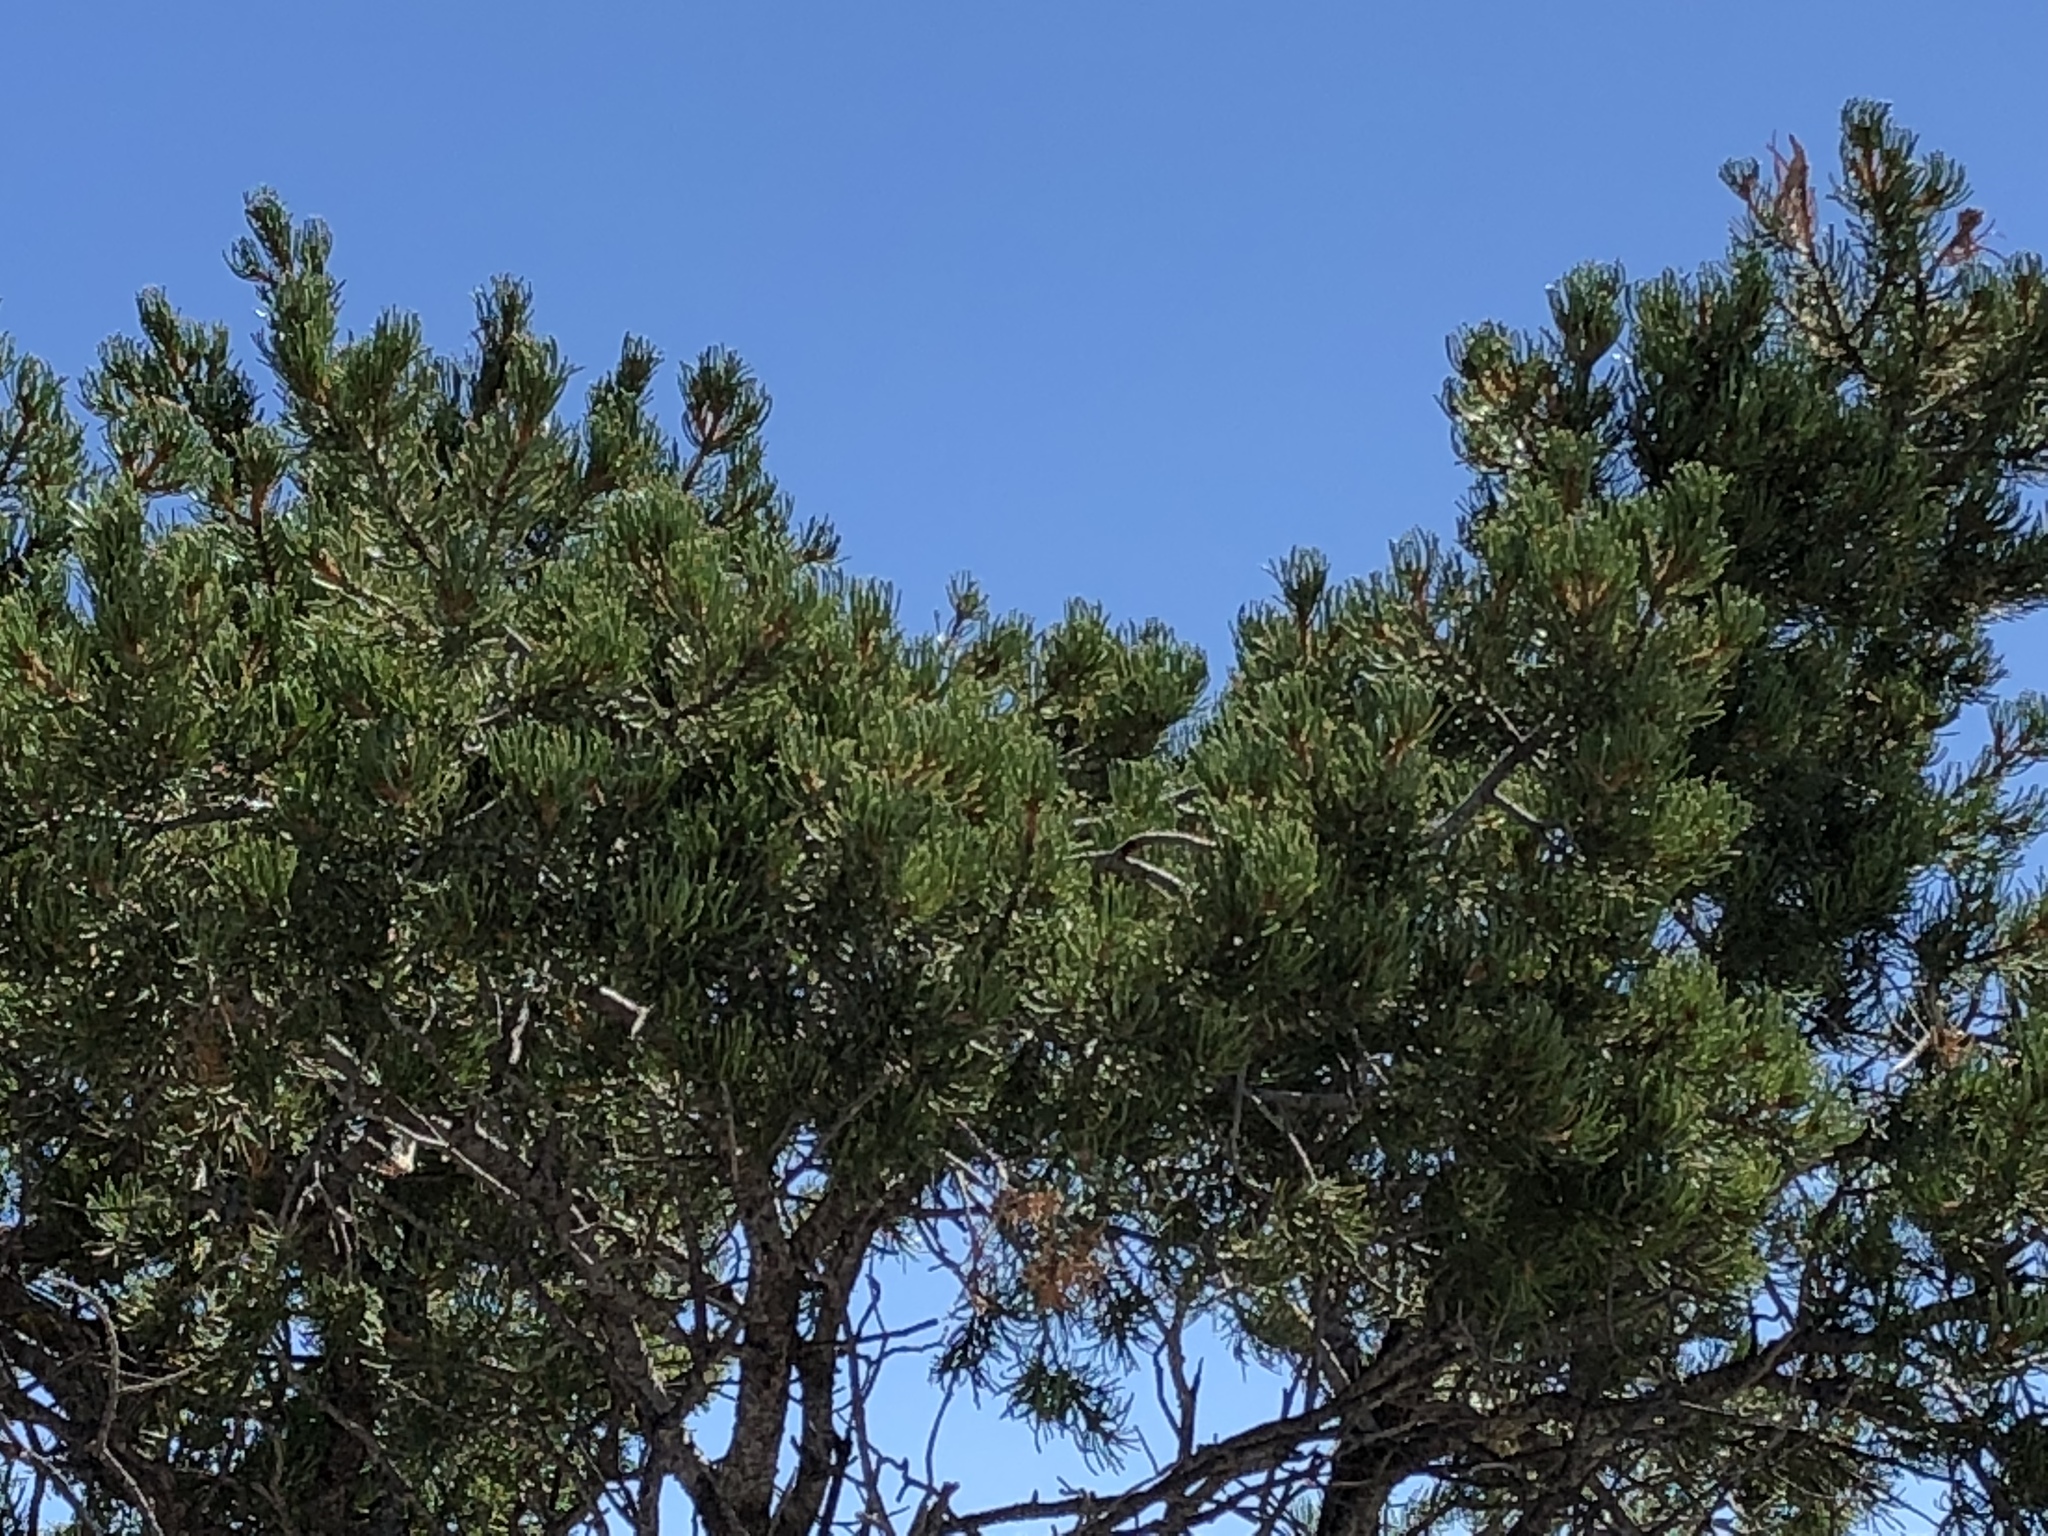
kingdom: Plantae
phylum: Tracheophyta
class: Pinopsida
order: Pinales
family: Pinaceae
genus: Pinus
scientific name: Pinus edulis
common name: Colorado pinyon
